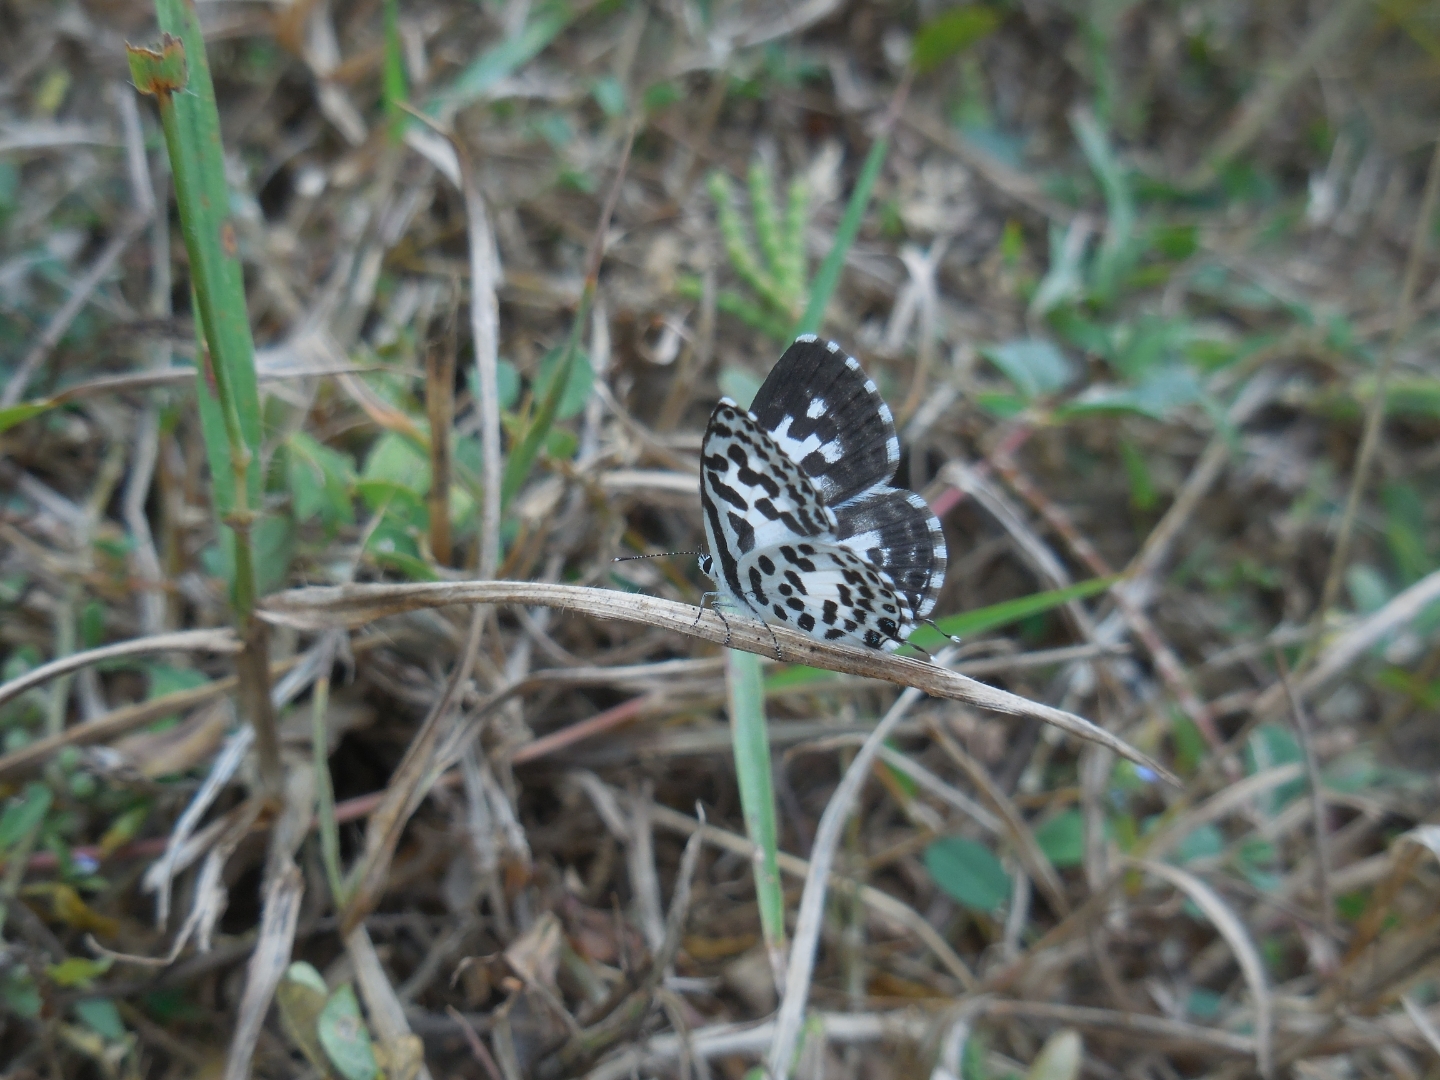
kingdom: Animalia
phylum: Arthropoda
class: Insecta
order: Lepidoptera
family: Lycaenidae
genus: Castalius
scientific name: Castalius rosimon
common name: Common pierrot
